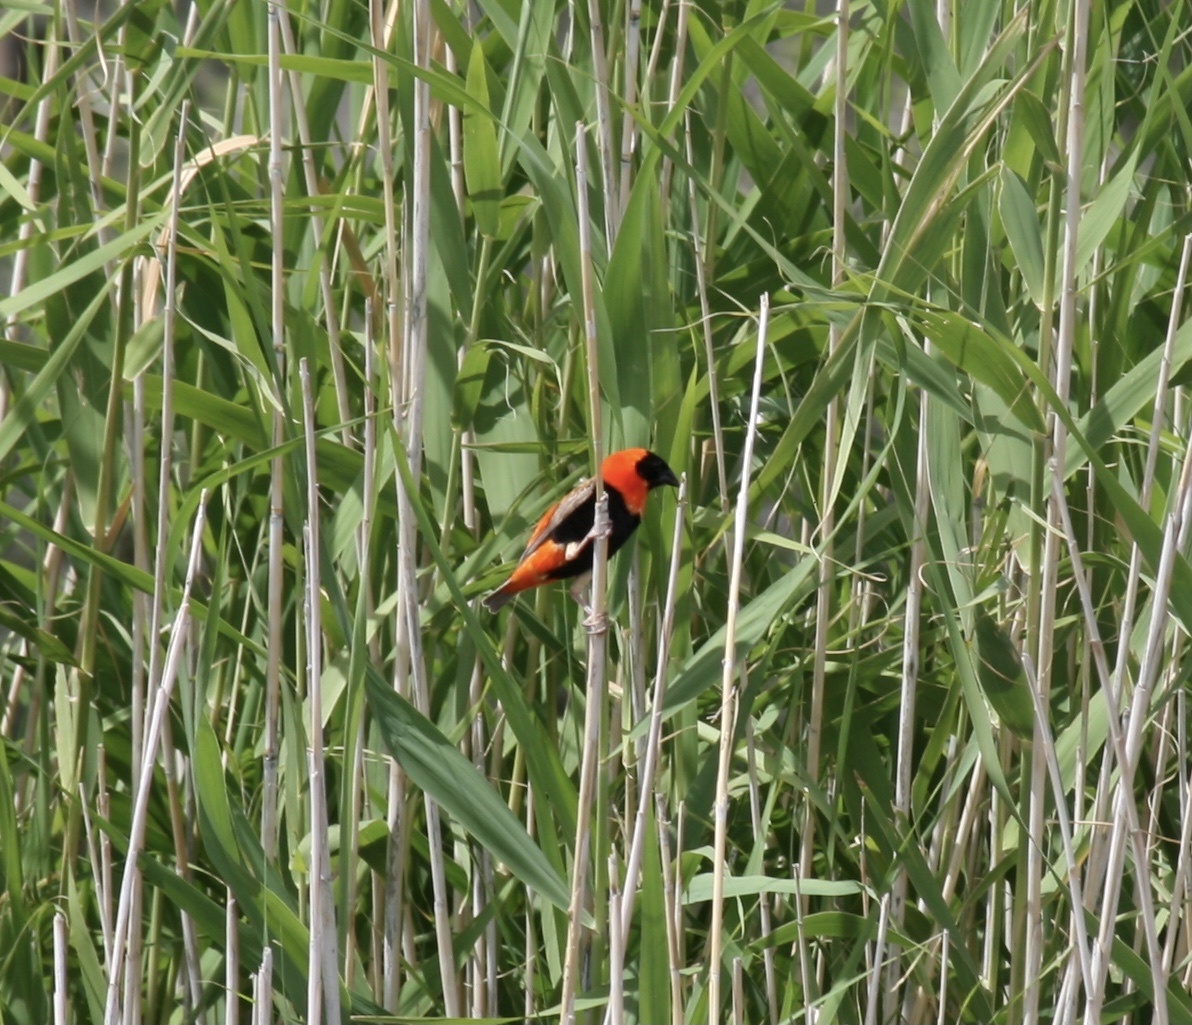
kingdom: Animalia
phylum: Chordata
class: Aves
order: Passeriformes
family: Ploceidae
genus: Euplectes
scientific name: Euplectes orix
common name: Southern red bishop
